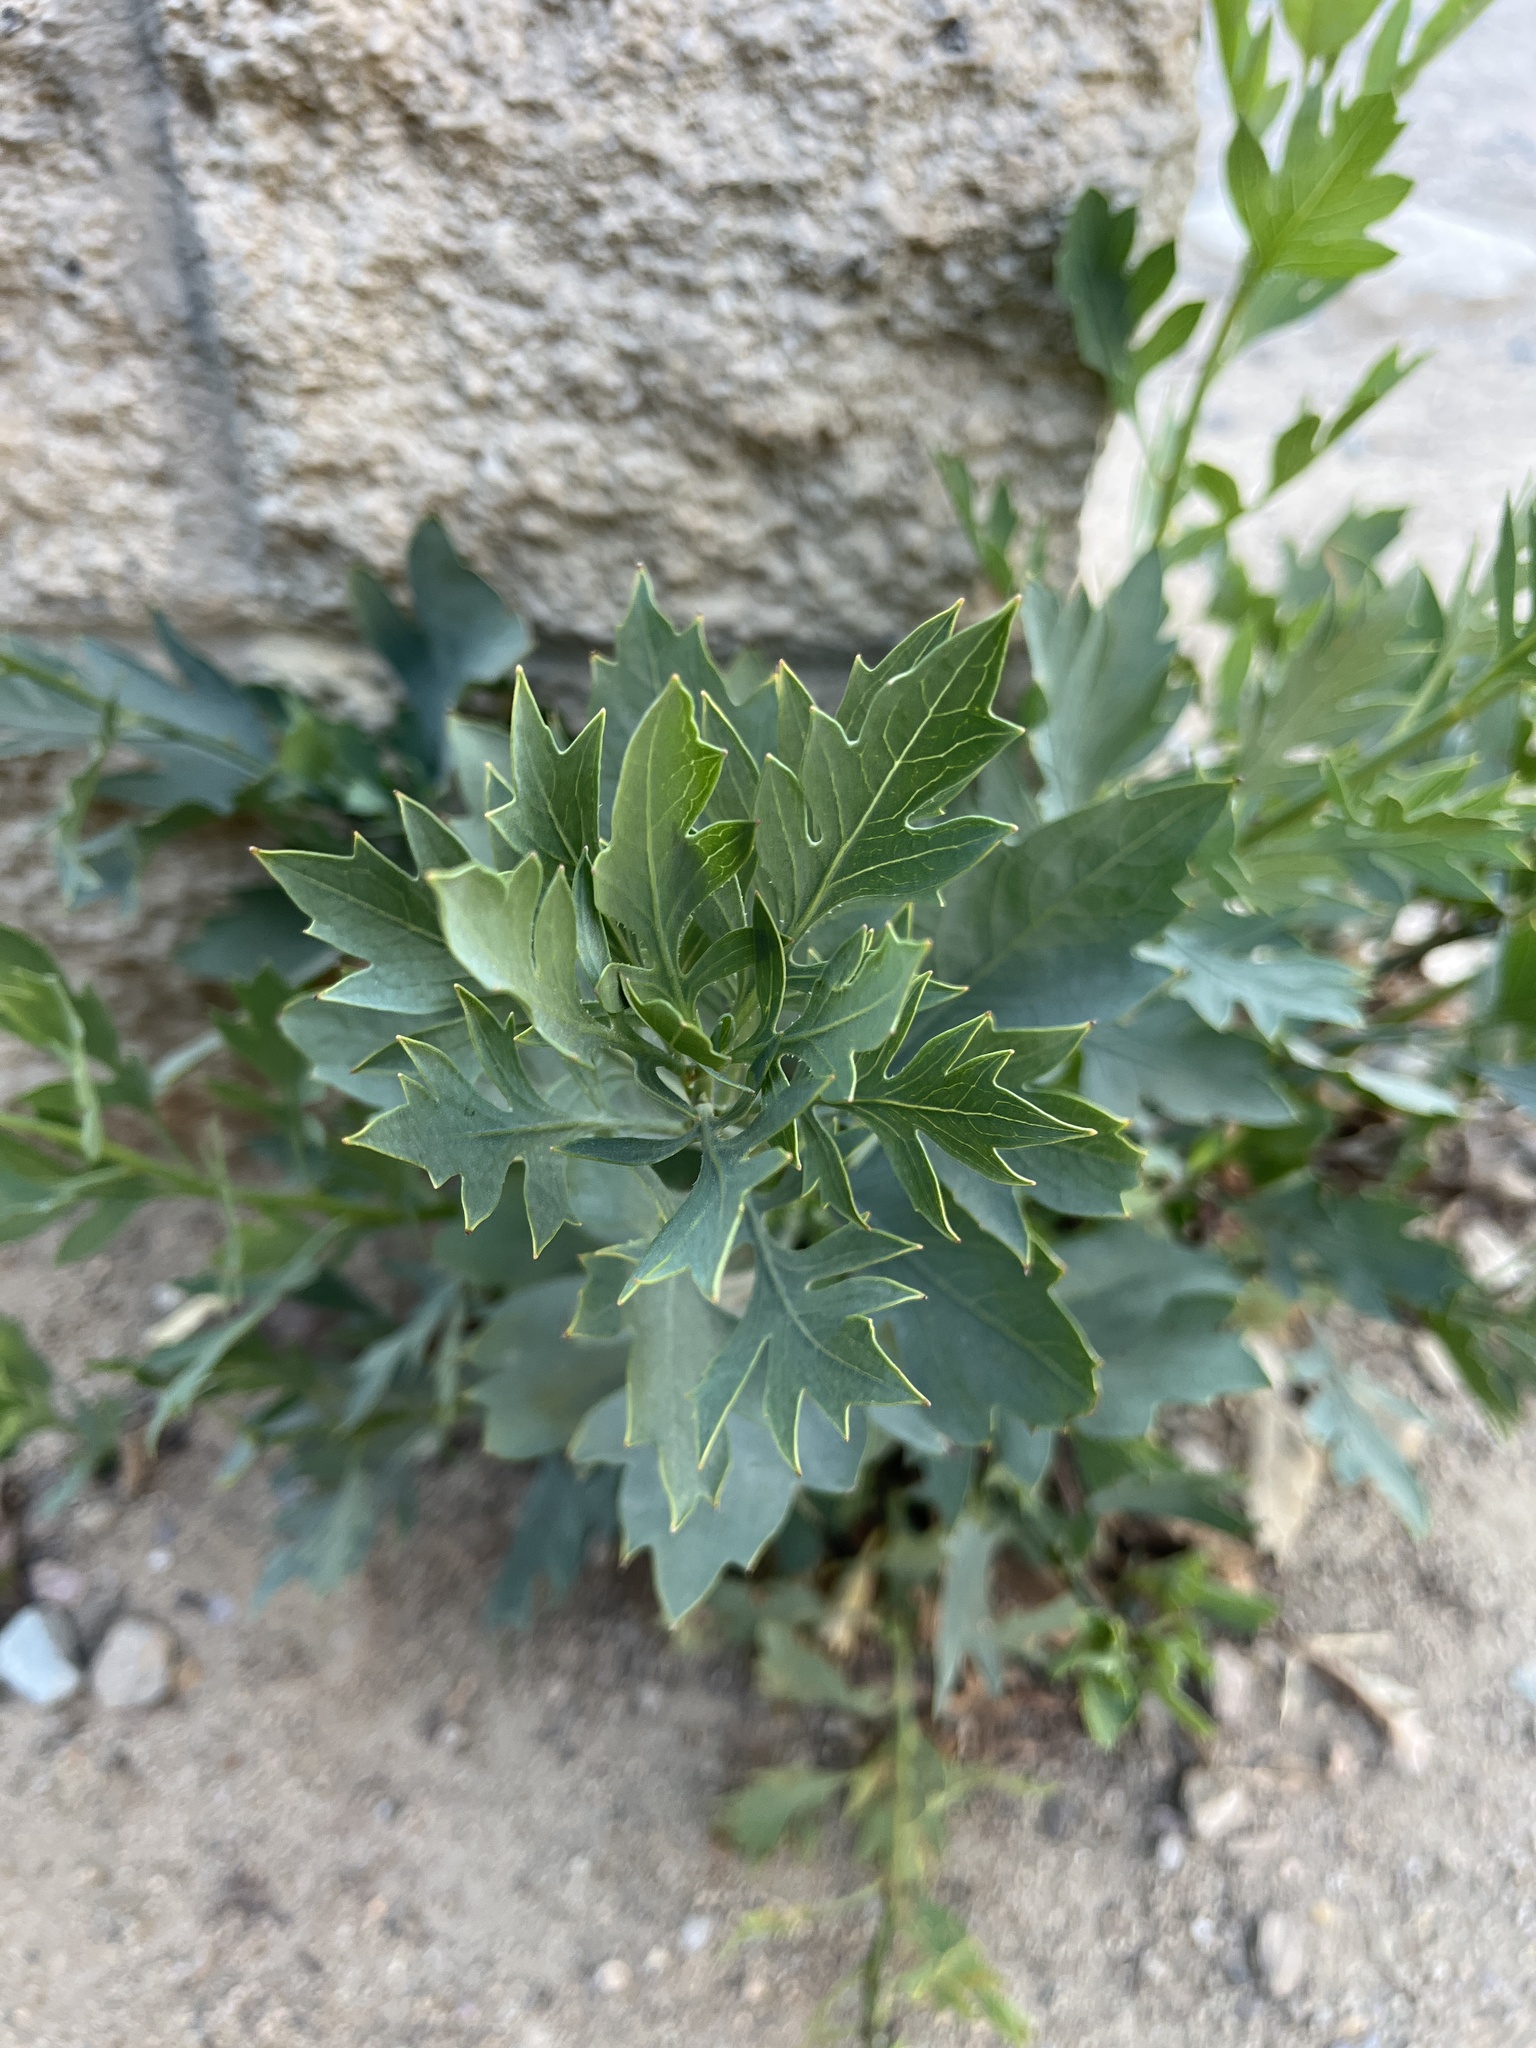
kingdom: Plantae
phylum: Tracheophyta
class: Magnoliopsida
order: Ranunculales
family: Papaveraceae
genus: Romneya
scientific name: Romneya coulteri
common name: California tree-poppy
